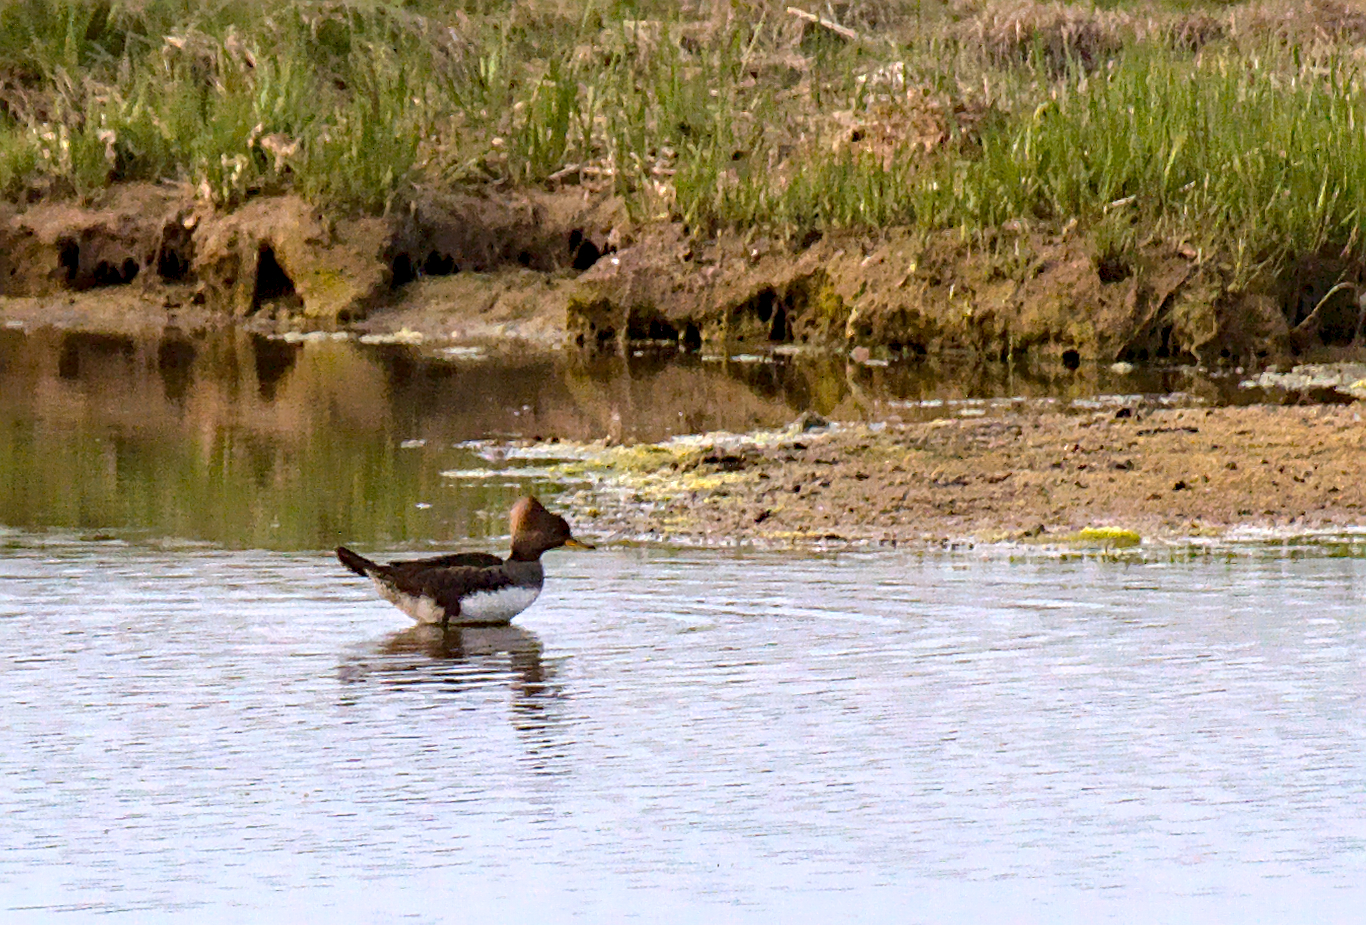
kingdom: Animalia
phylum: Chordata
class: Aves
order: Anseriformes
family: Anatidae
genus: Lophodytes
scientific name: Lophodytes cucullatus
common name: Hooded merganser
